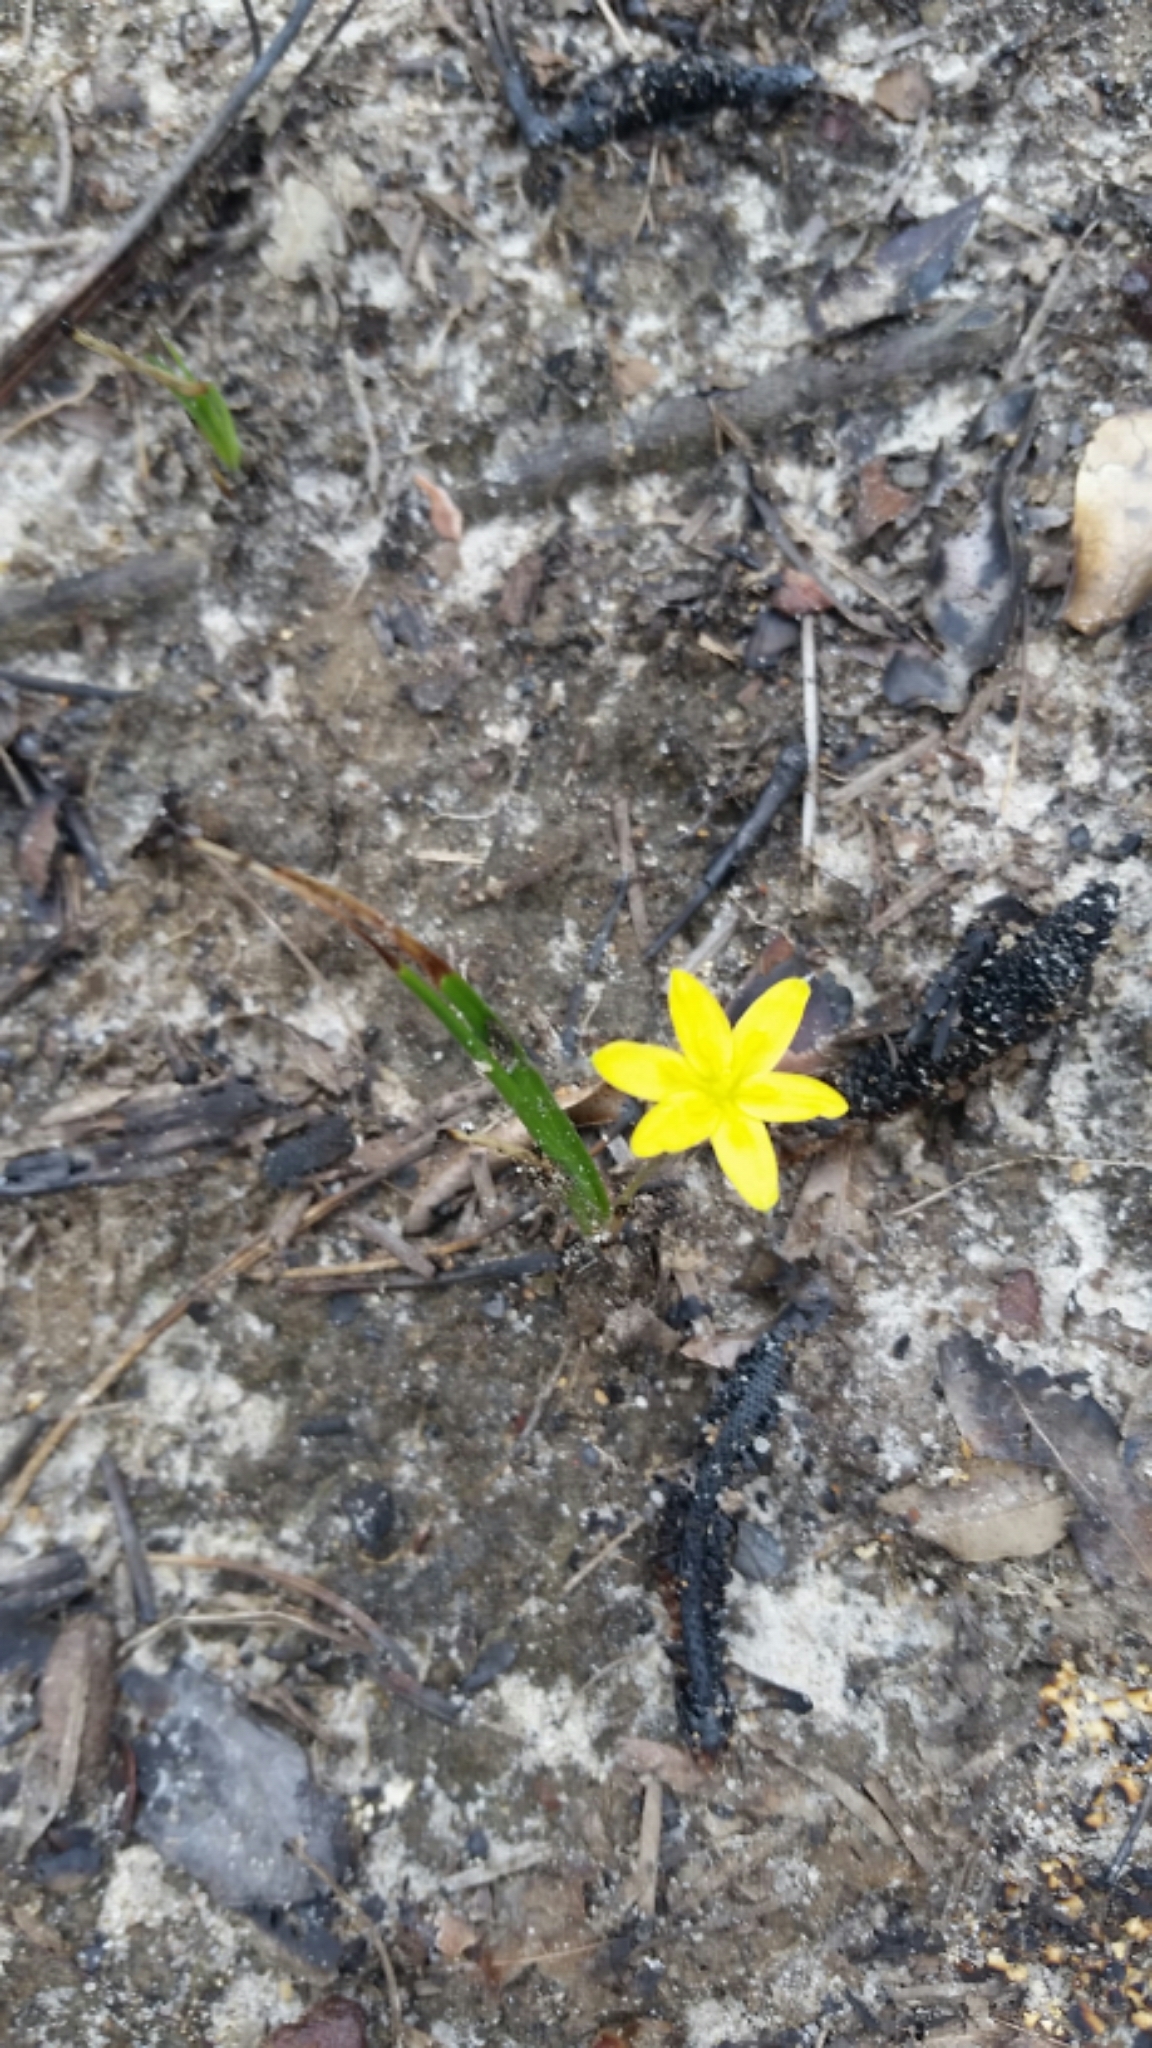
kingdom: Plantae
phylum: Tracheophyta
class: Liliopsida
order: Asparagales
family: Hypoxidaceae
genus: Hypoxis
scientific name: Hypoxis hirsuta
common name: Common goldstar
